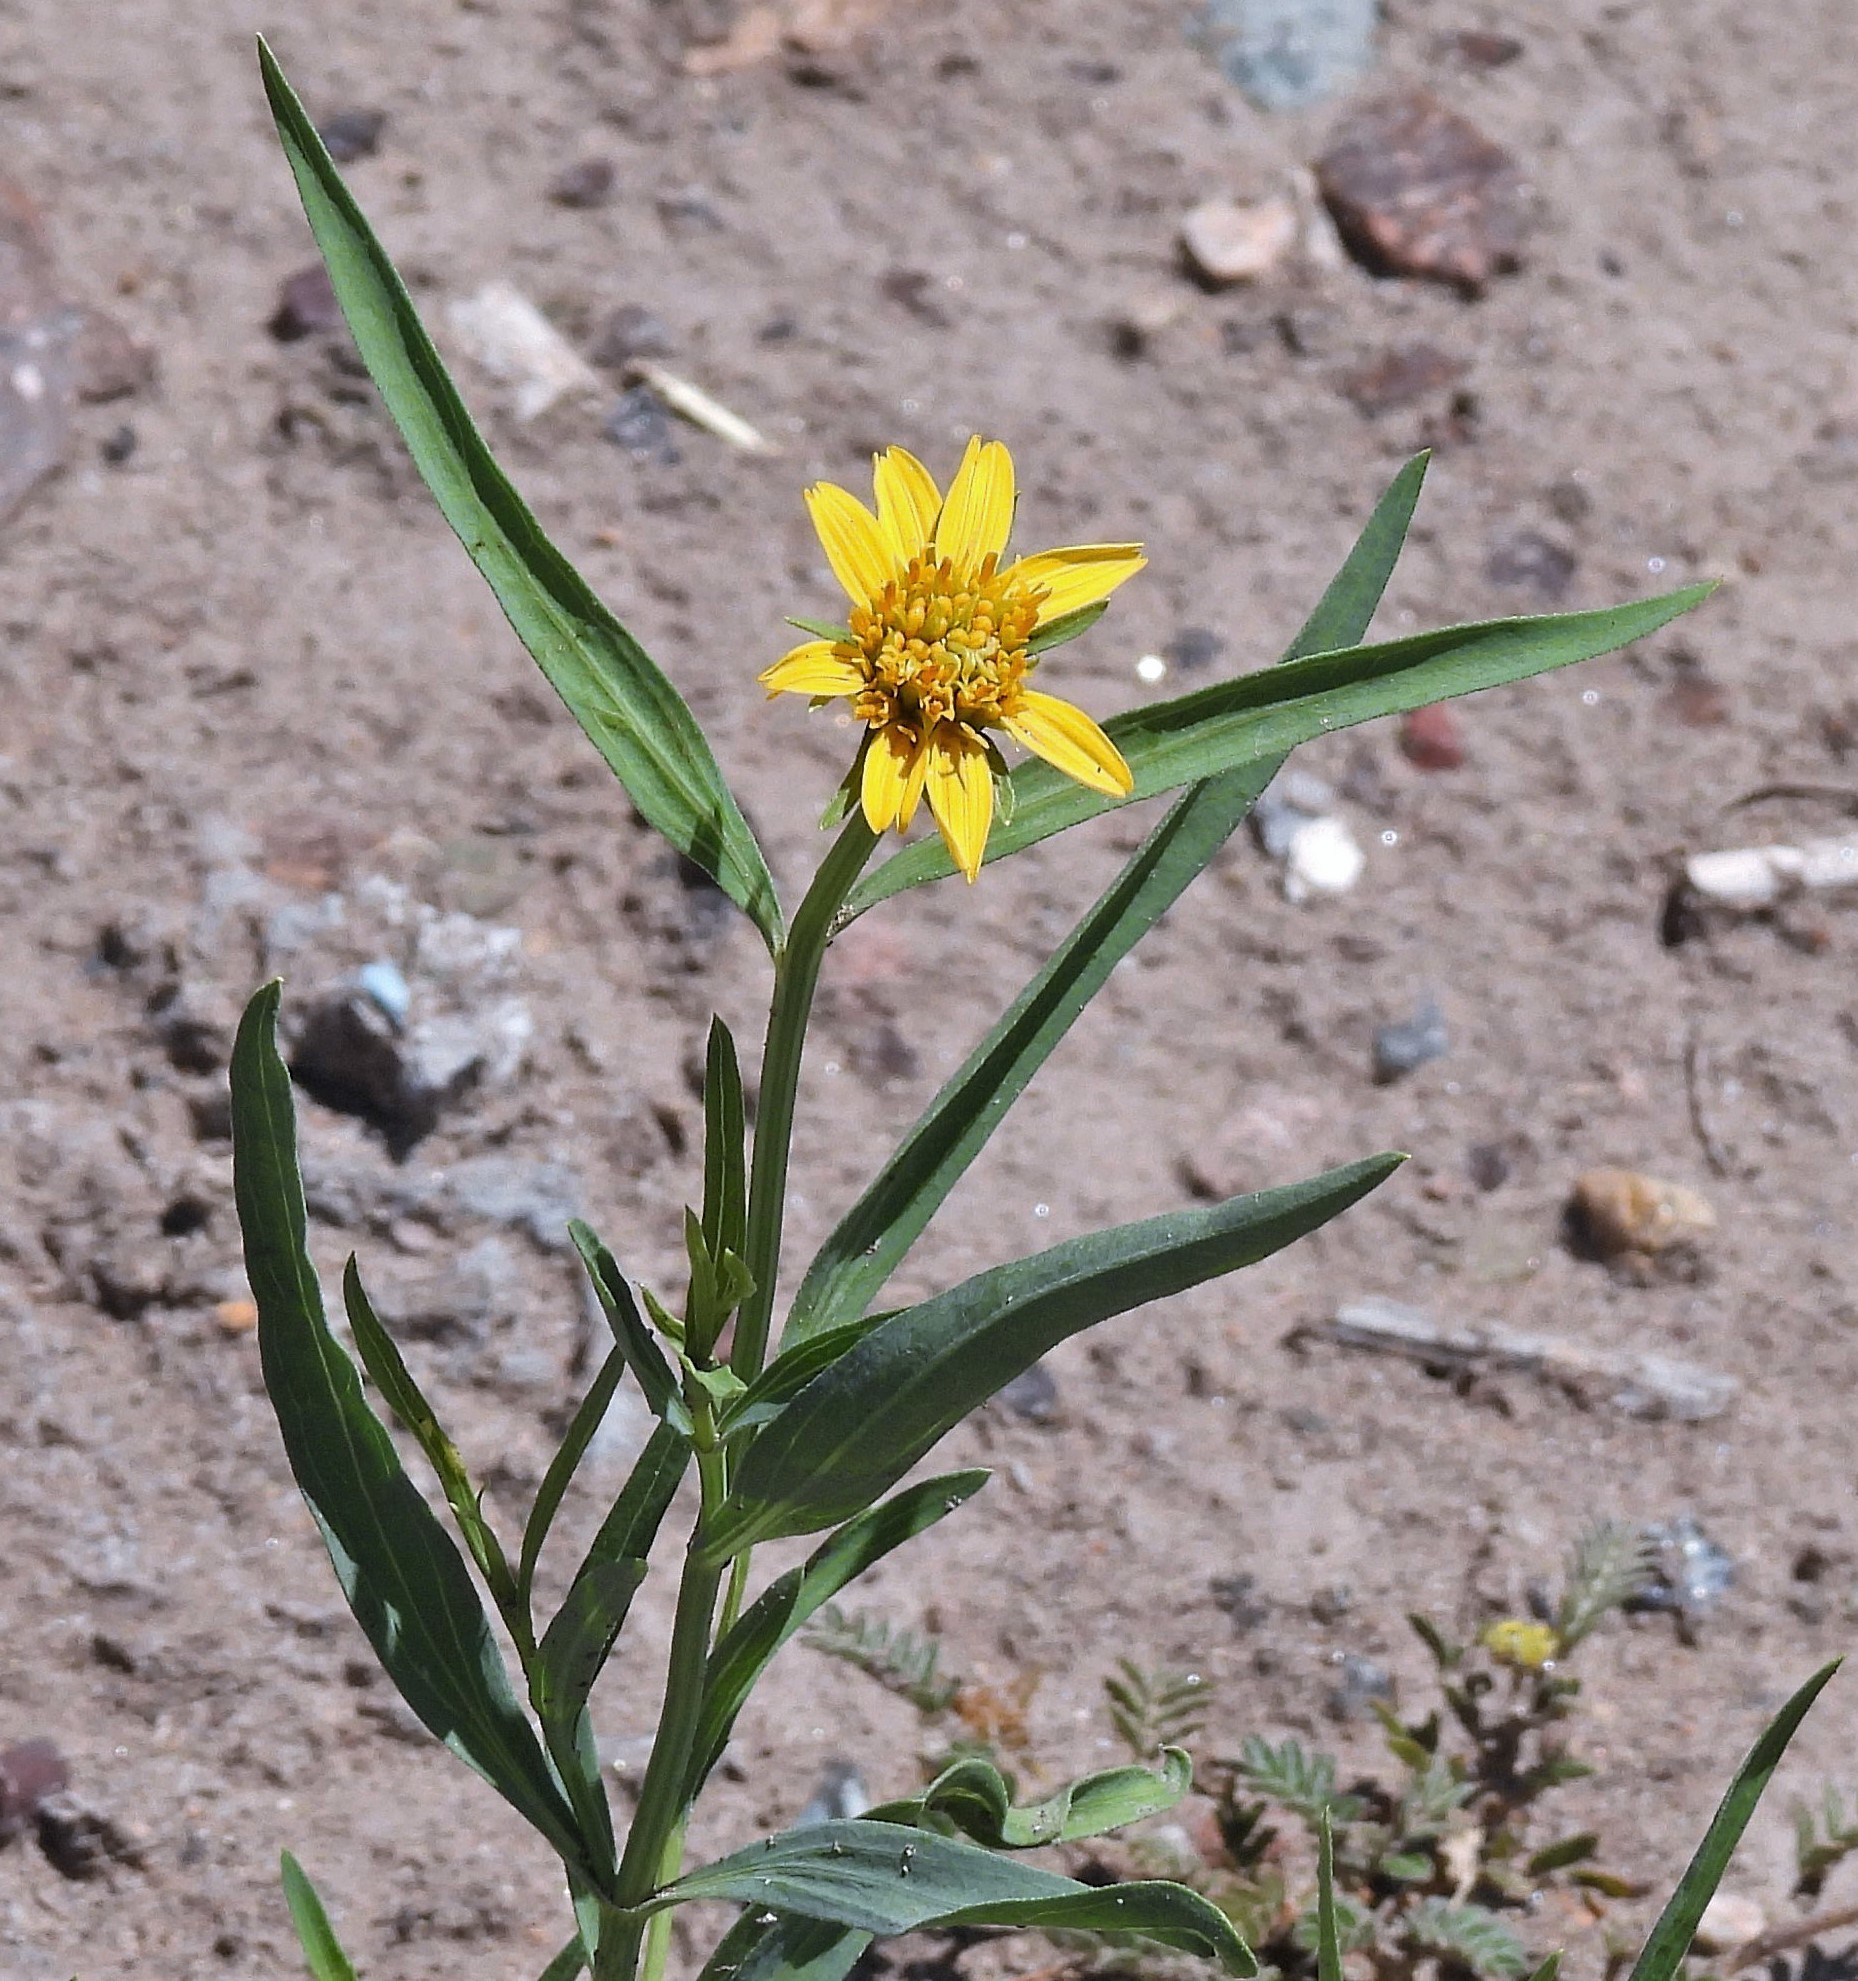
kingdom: Plantae
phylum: Tracheophyta
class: Magnoliopsida
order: Asterales
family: Asteraceae
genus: Pascalia
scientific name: Pascalia glauca
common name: Beach creeping oxeye
